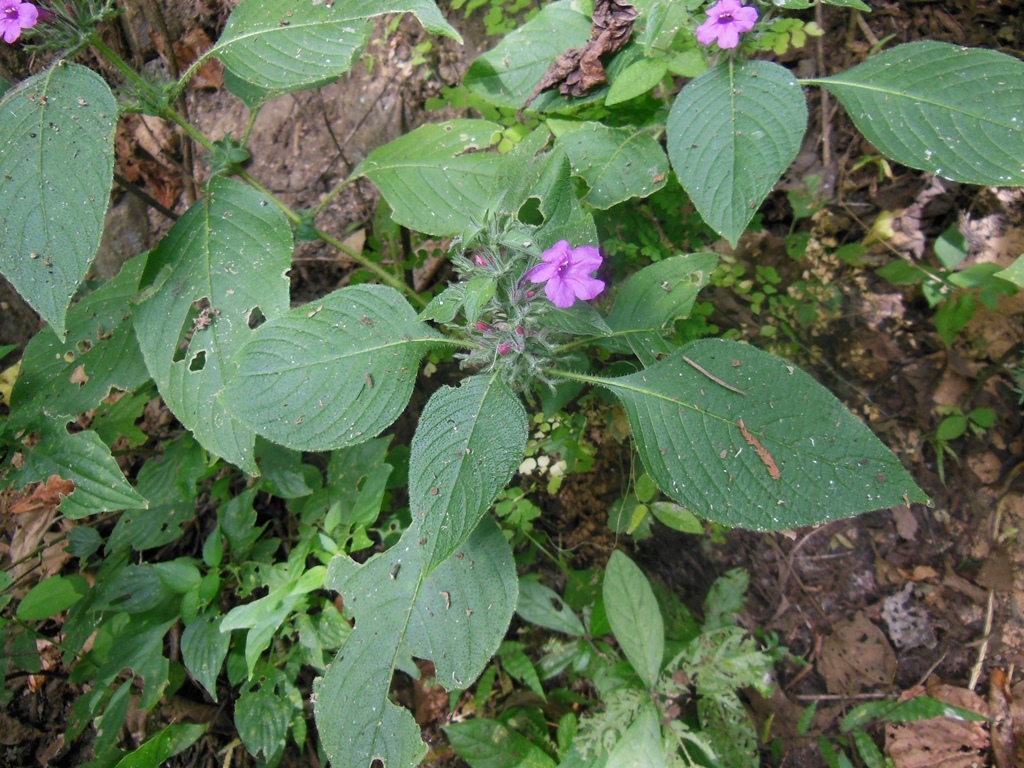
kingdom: Plantae
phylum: Tracheophyta
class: Magnoliopsida
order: Lamiales
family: Acanthaceae
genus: Ruellia
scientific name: Ruellia inundata
